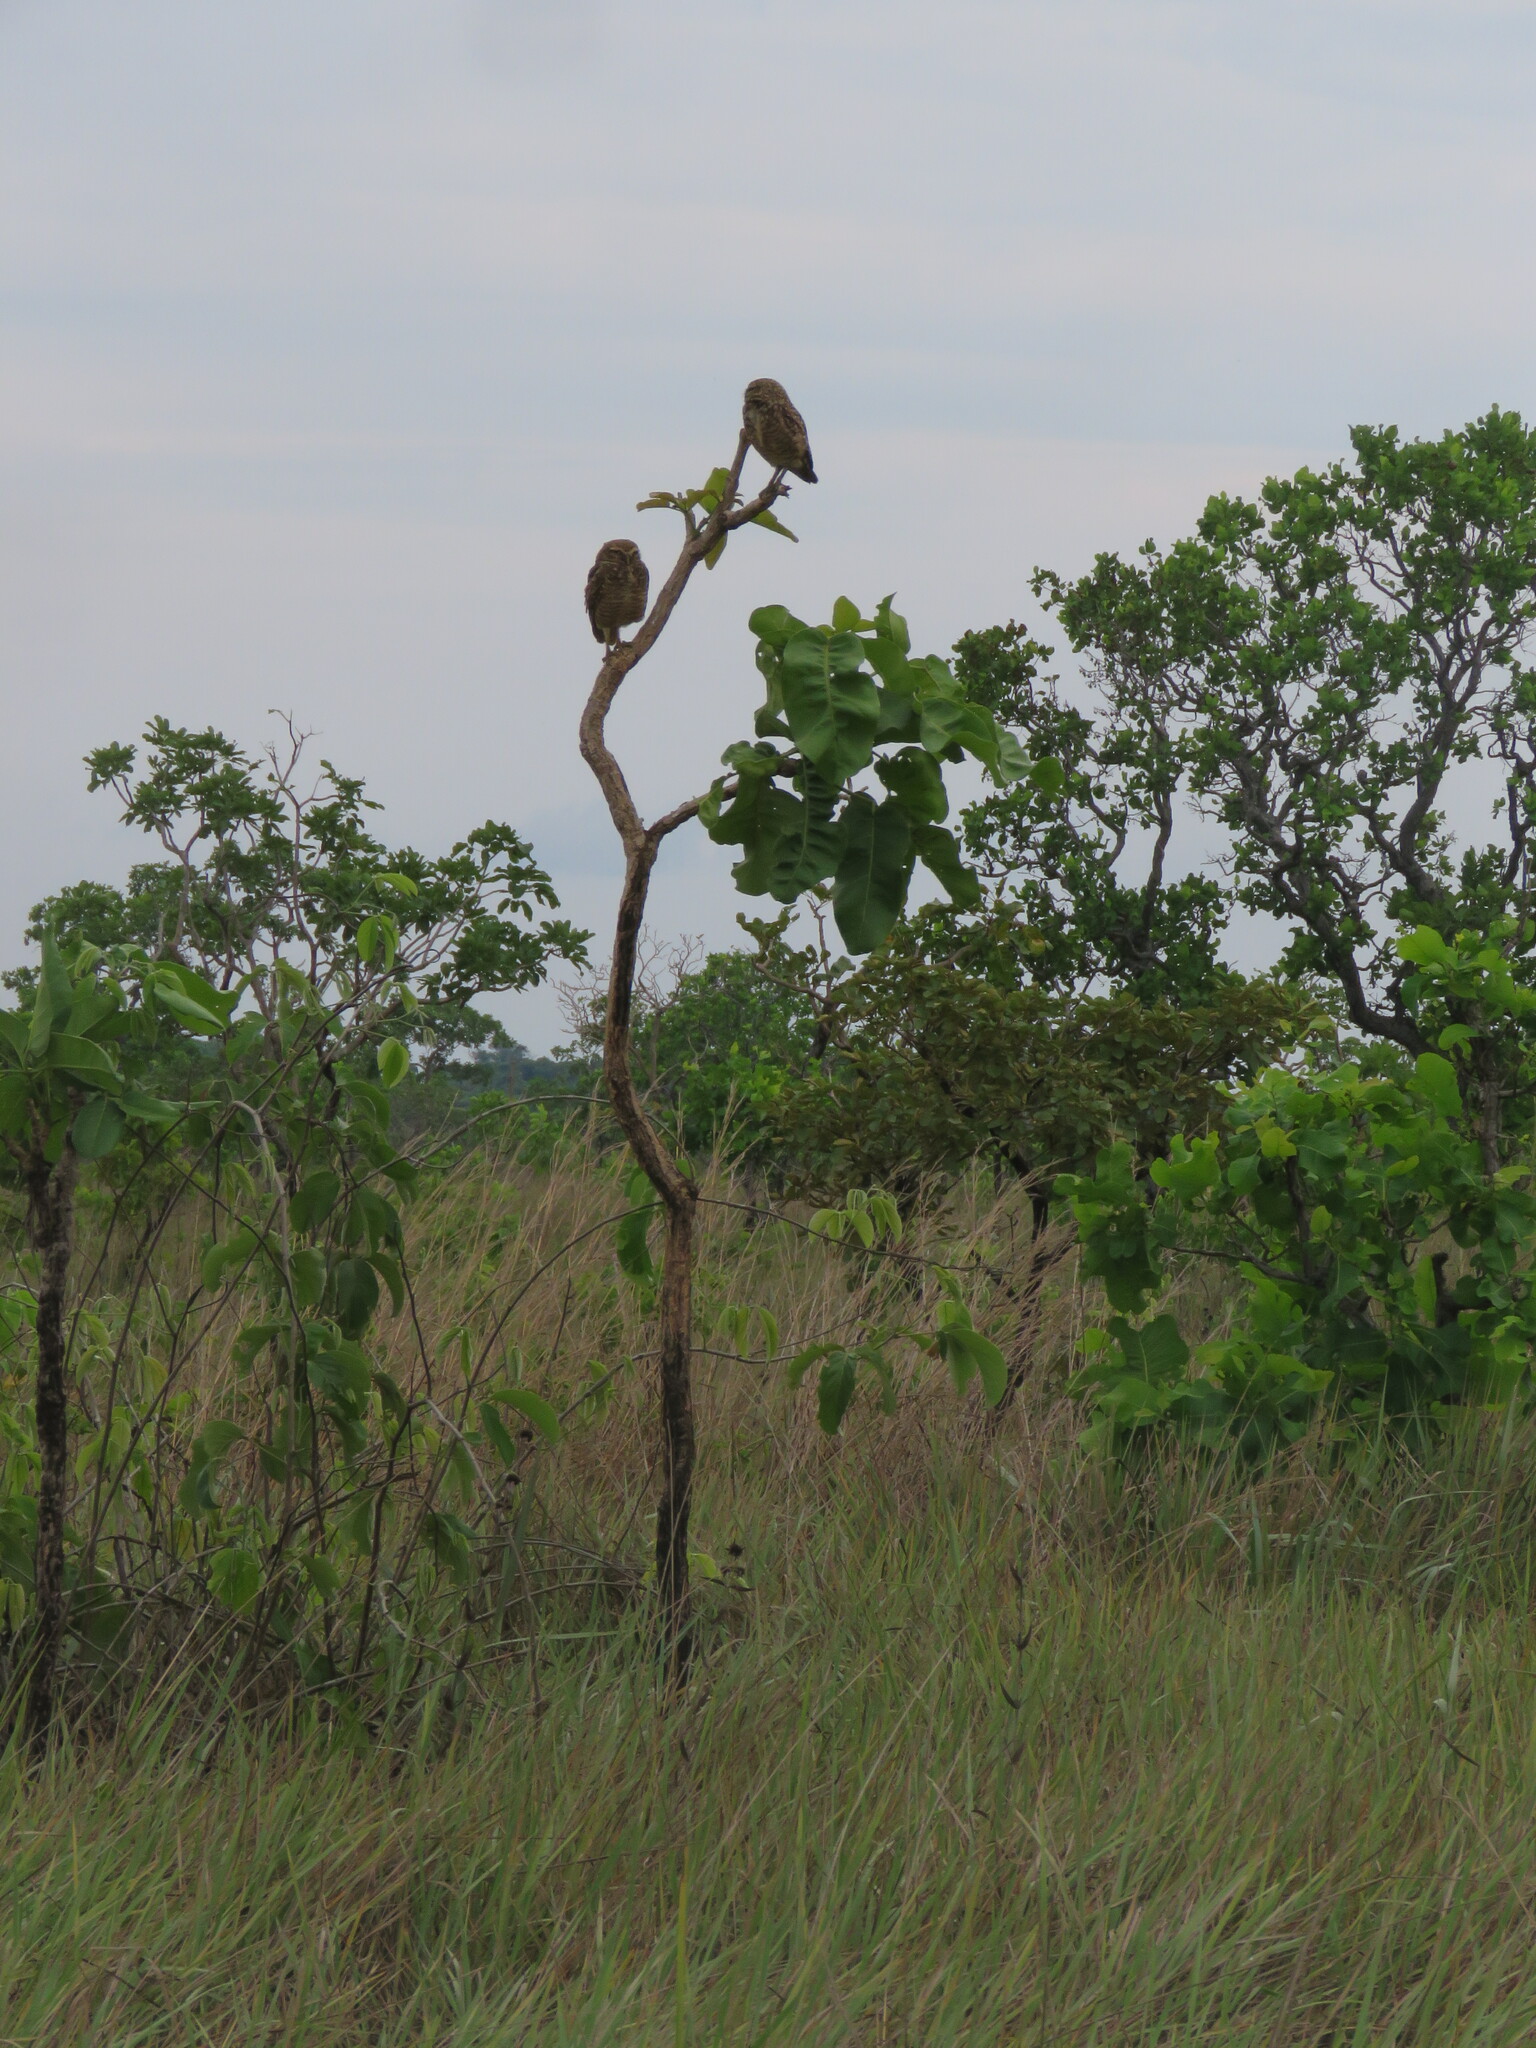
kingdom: Animalia
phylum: Chordata
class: Aves
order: Strigiformes
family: Strigidae
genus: Athene
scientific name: Athene cunicularia
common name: Burrowing owl
